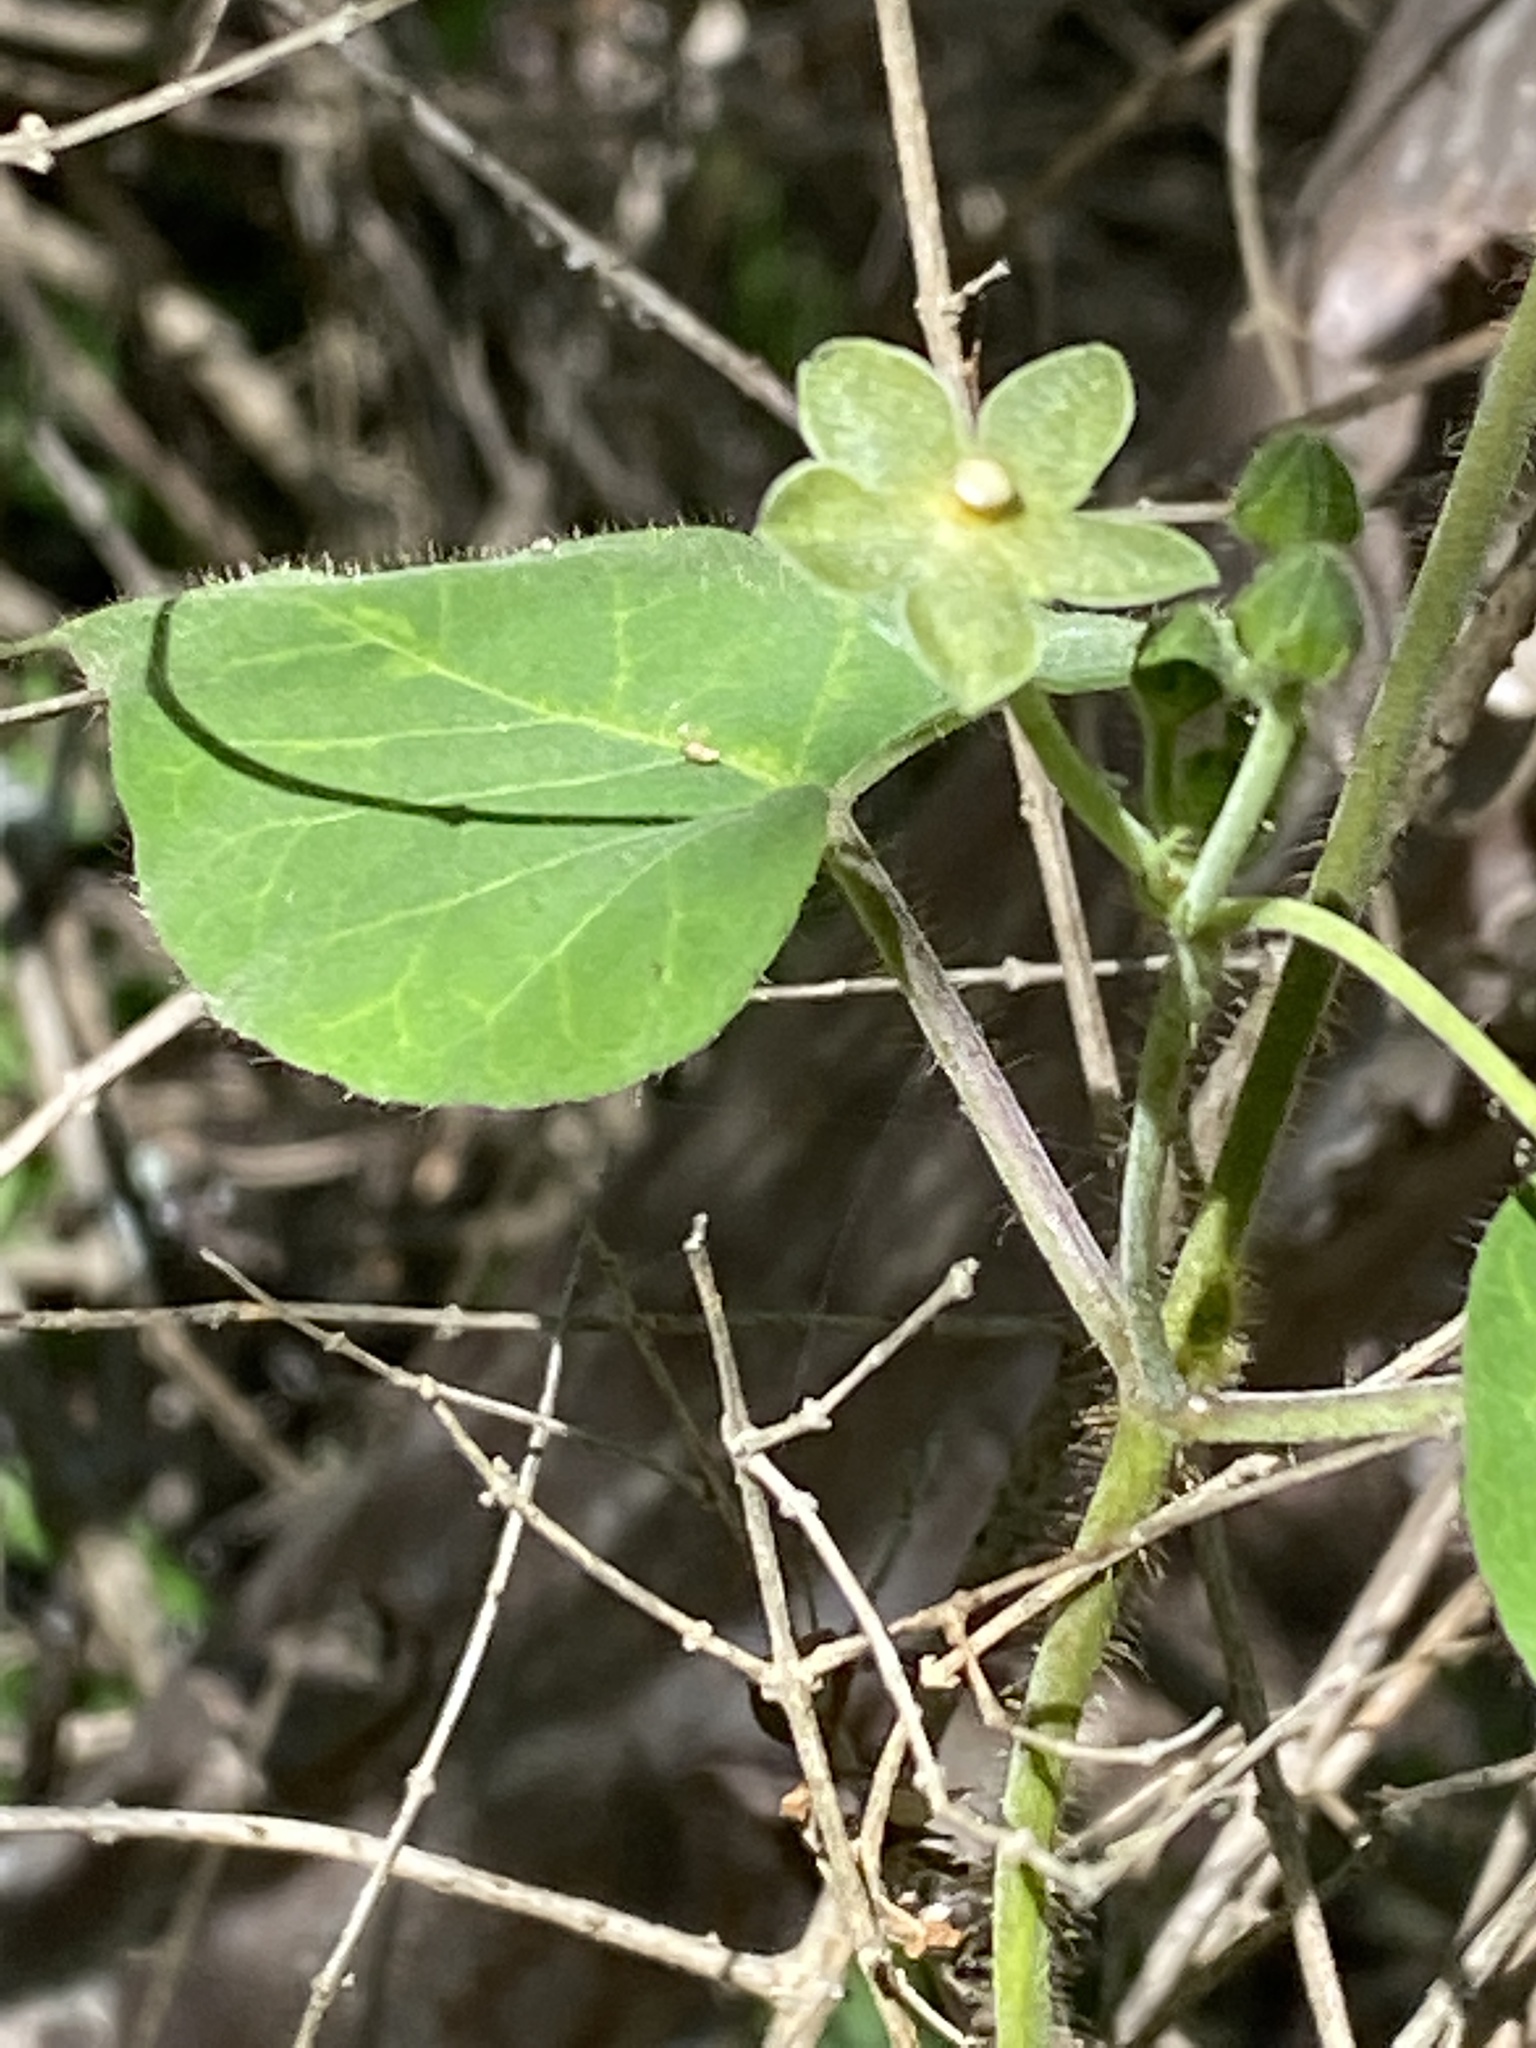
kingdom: Plantae
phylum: Tracheophyta
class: Magnoliopsida
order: Gentianales
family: Apocynaceae
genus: Dictyanthus
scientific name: Dictyanthus reticulatus
